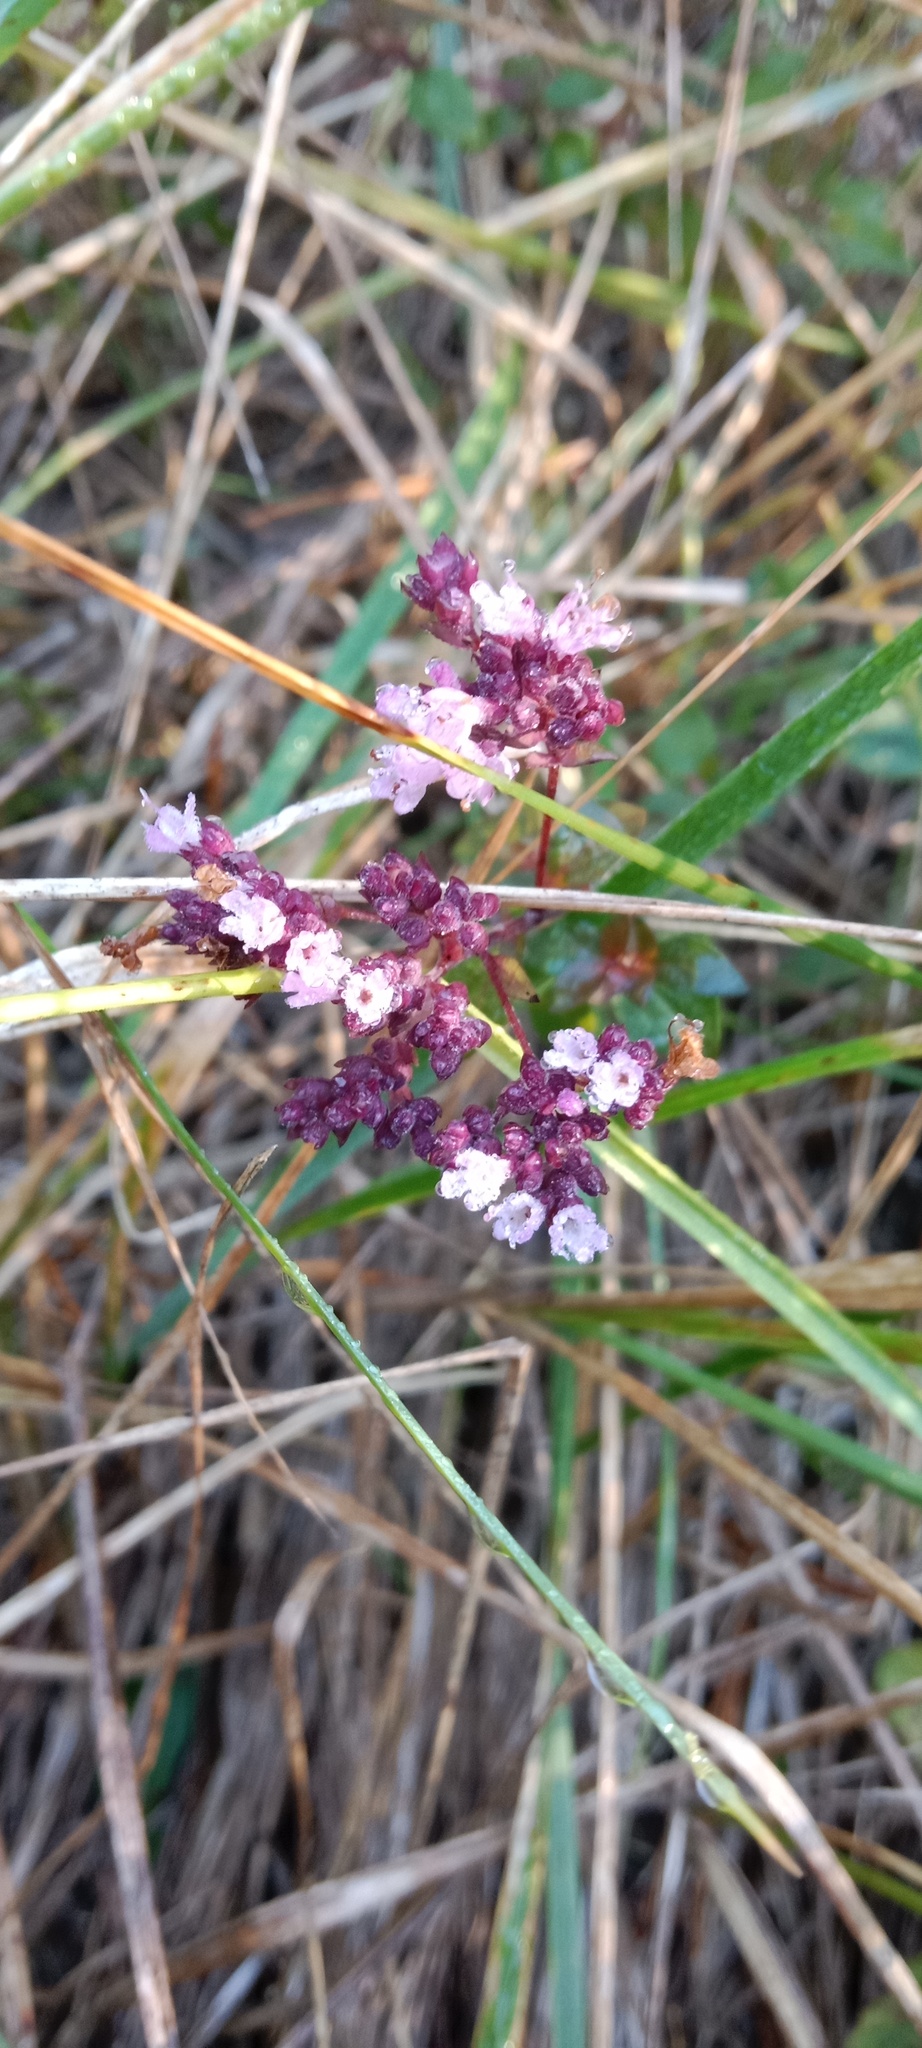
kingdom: Plantae
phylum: Tracheophyta
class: Magnoliopsida
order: Lamiales
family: Lamiaceae
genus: Origanum
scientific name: Origanum vulgare
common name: Wild marjoram
